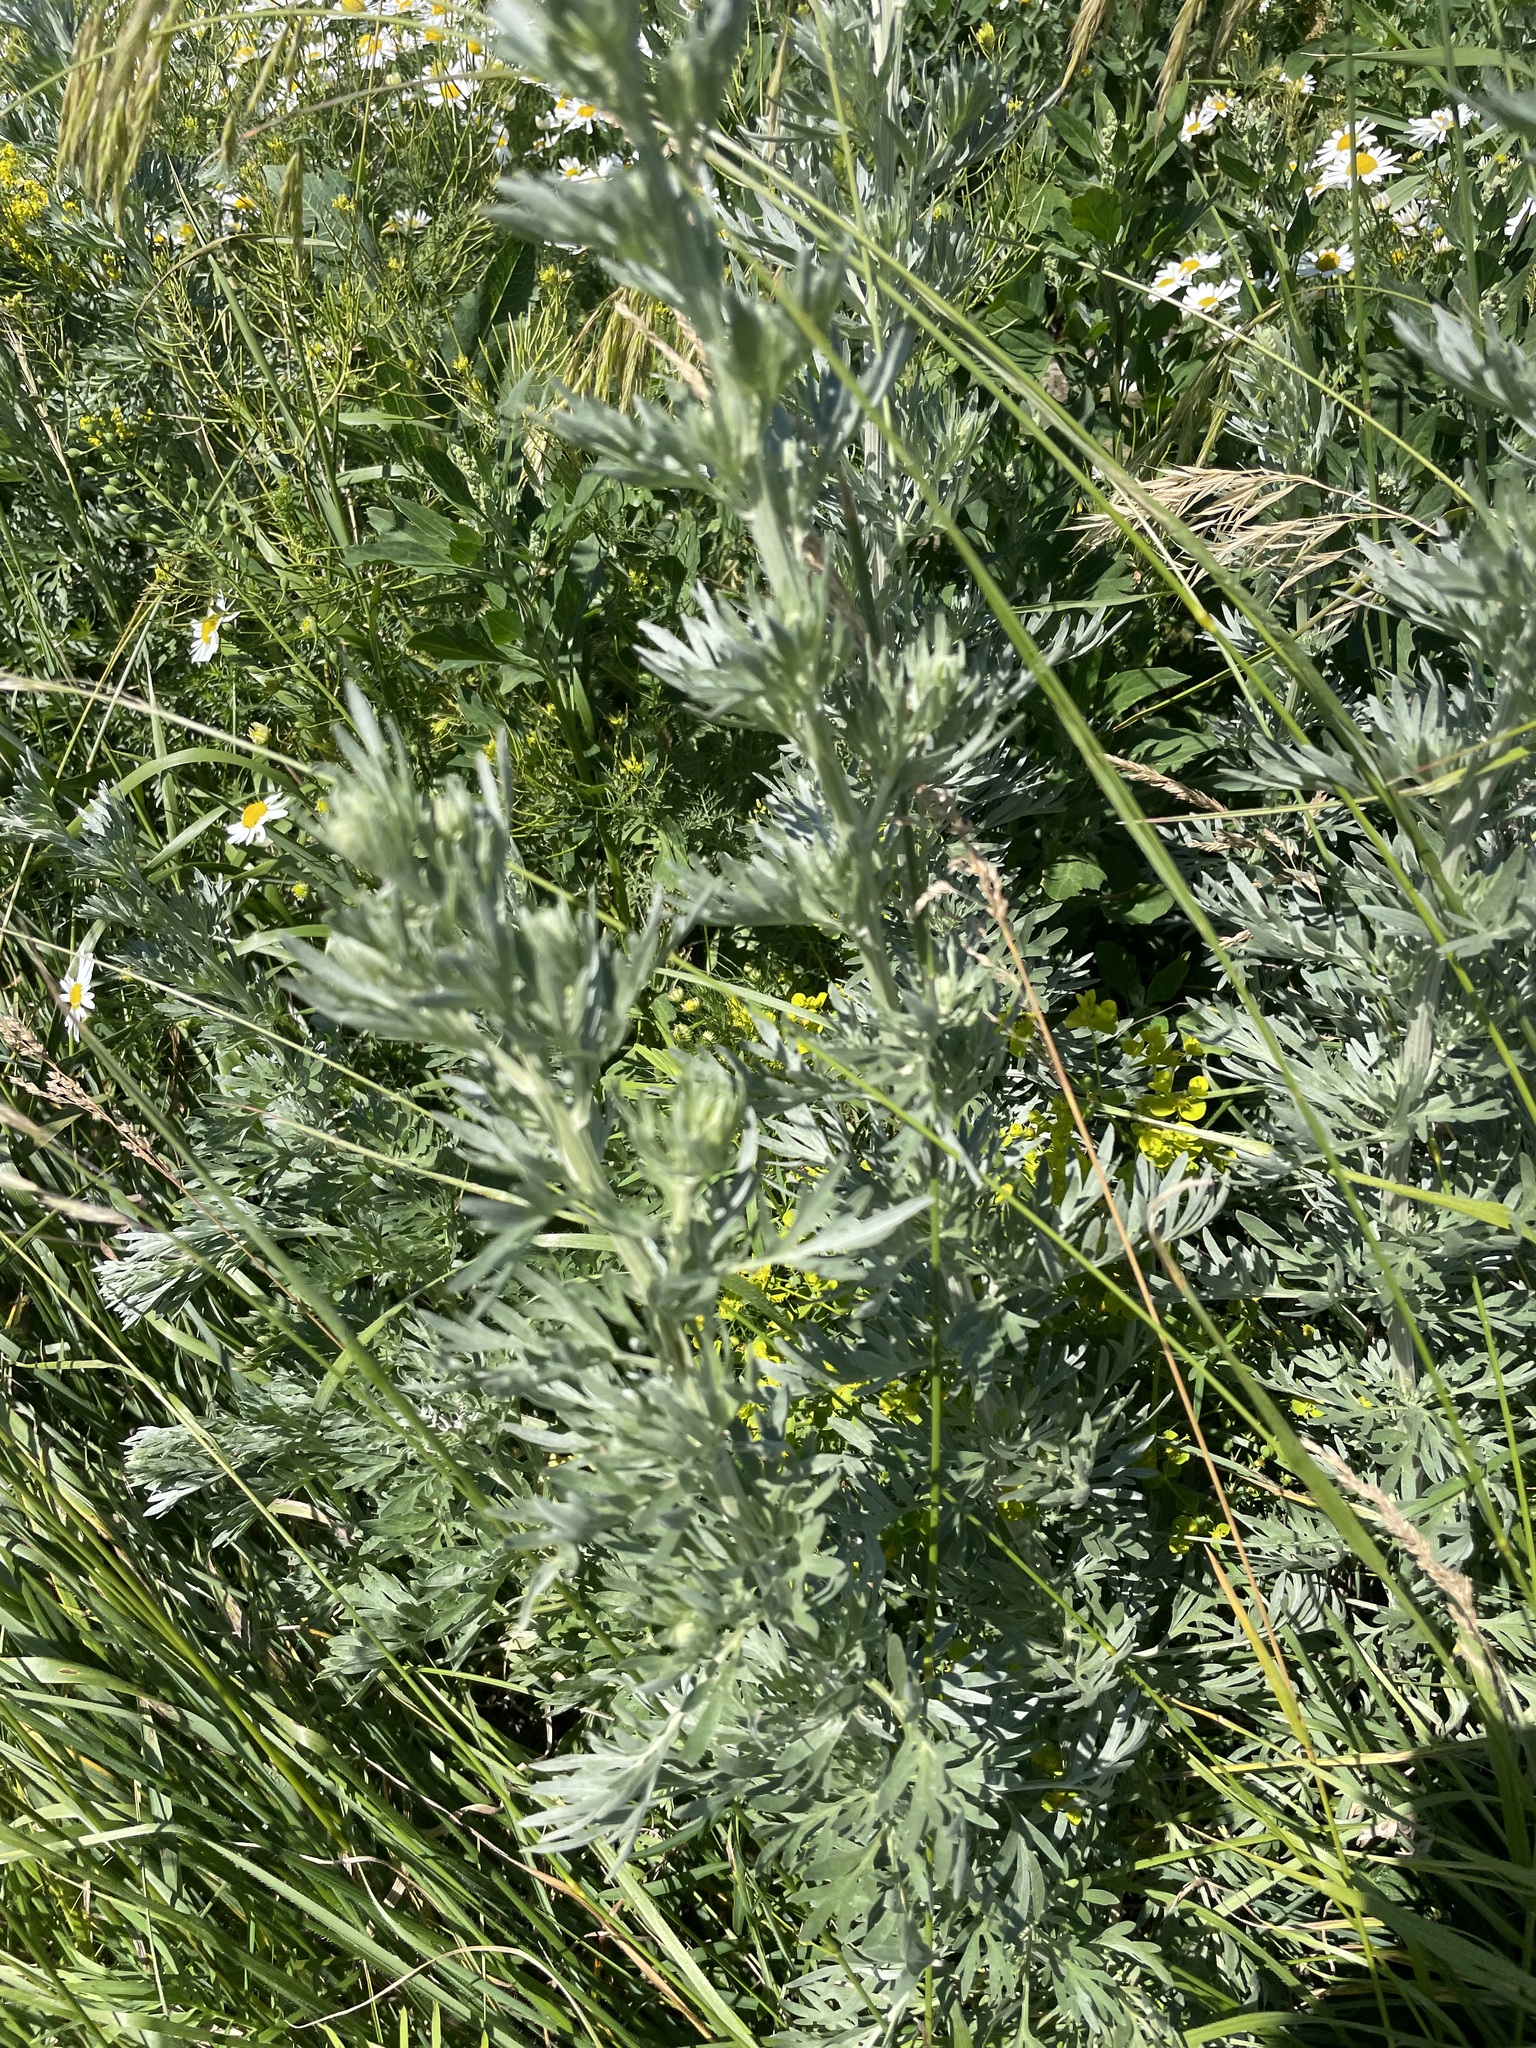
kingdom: Plantae
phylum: Tracheophyta
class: Magnoliopsida
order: Asterales
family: Asteraceae
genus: Artemisia
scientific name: Artemisia absinthium
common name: Wormwood
